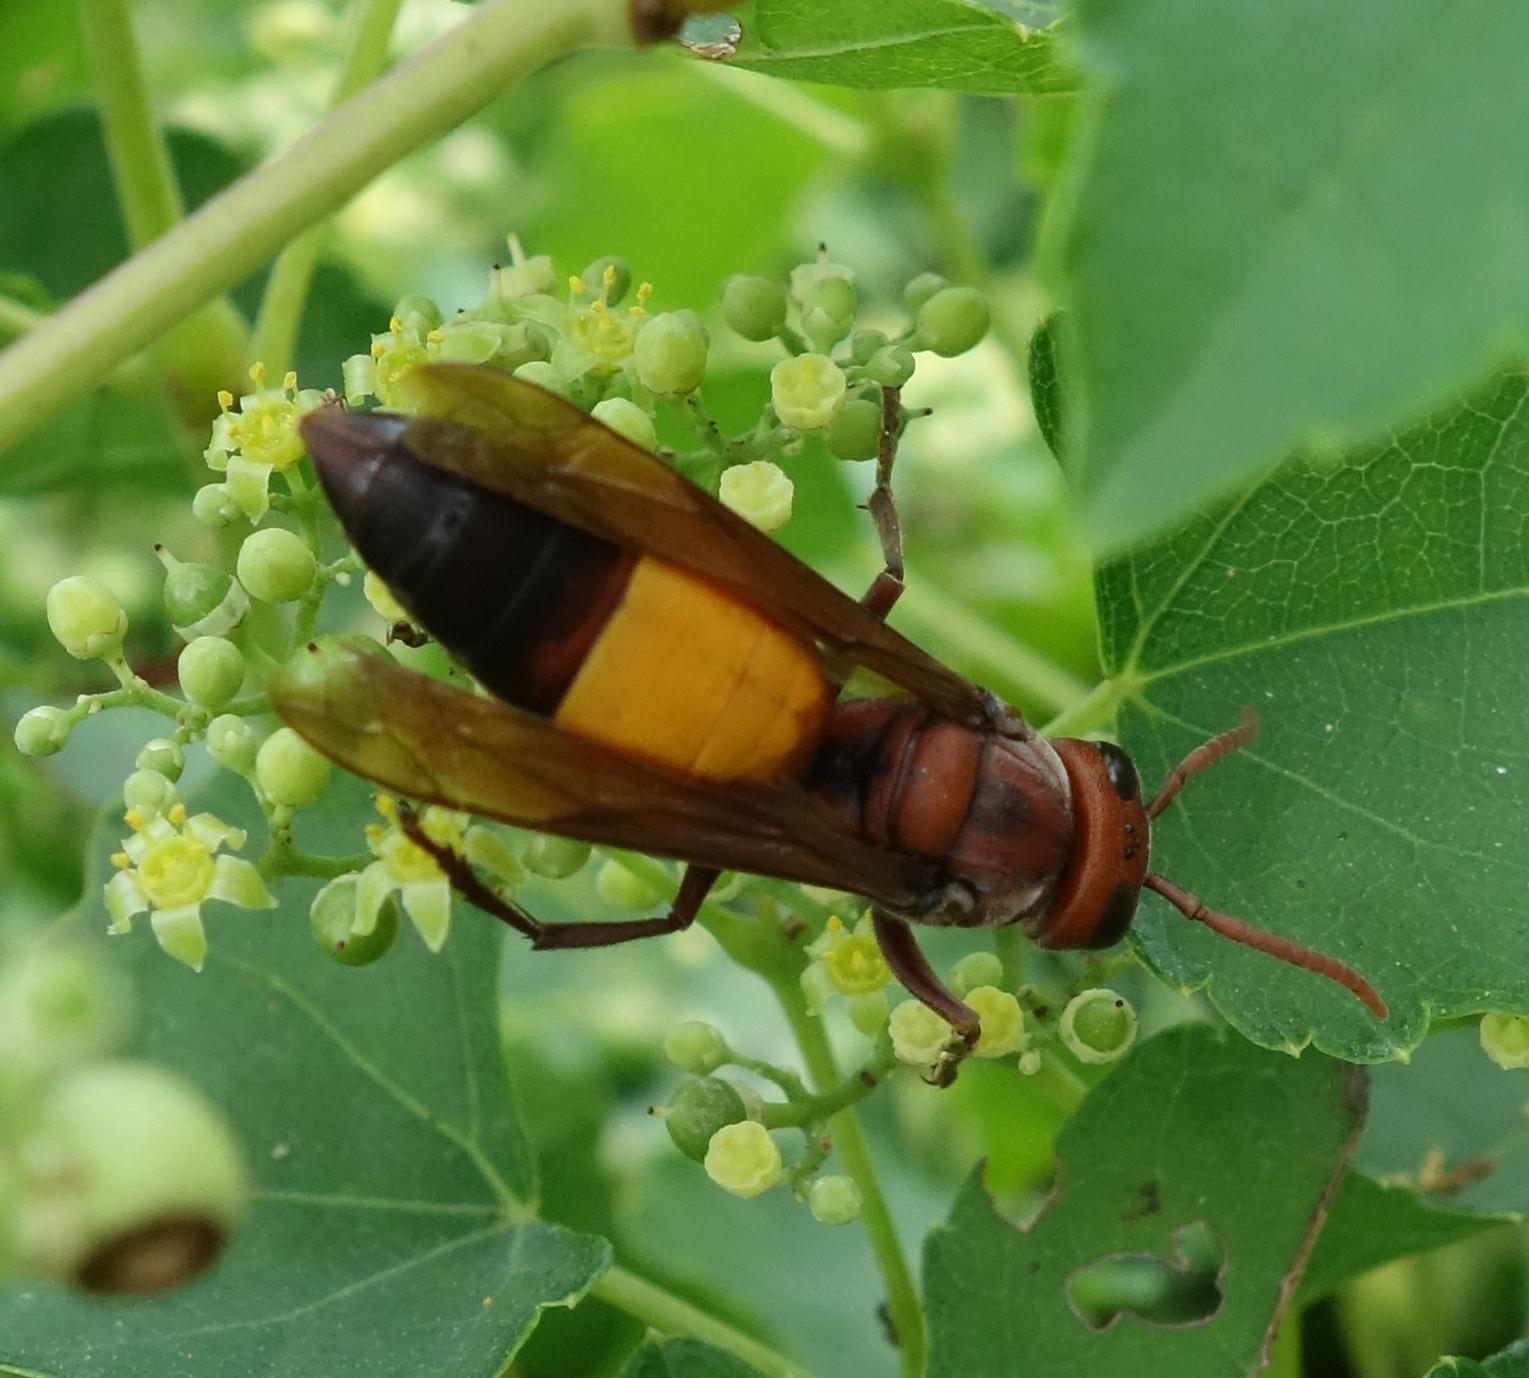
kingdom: Animalia
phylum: Arthropoda
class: Insecta
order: Hymenoptera
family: Vespidae
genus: Vespa
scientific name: Vespa affinis
